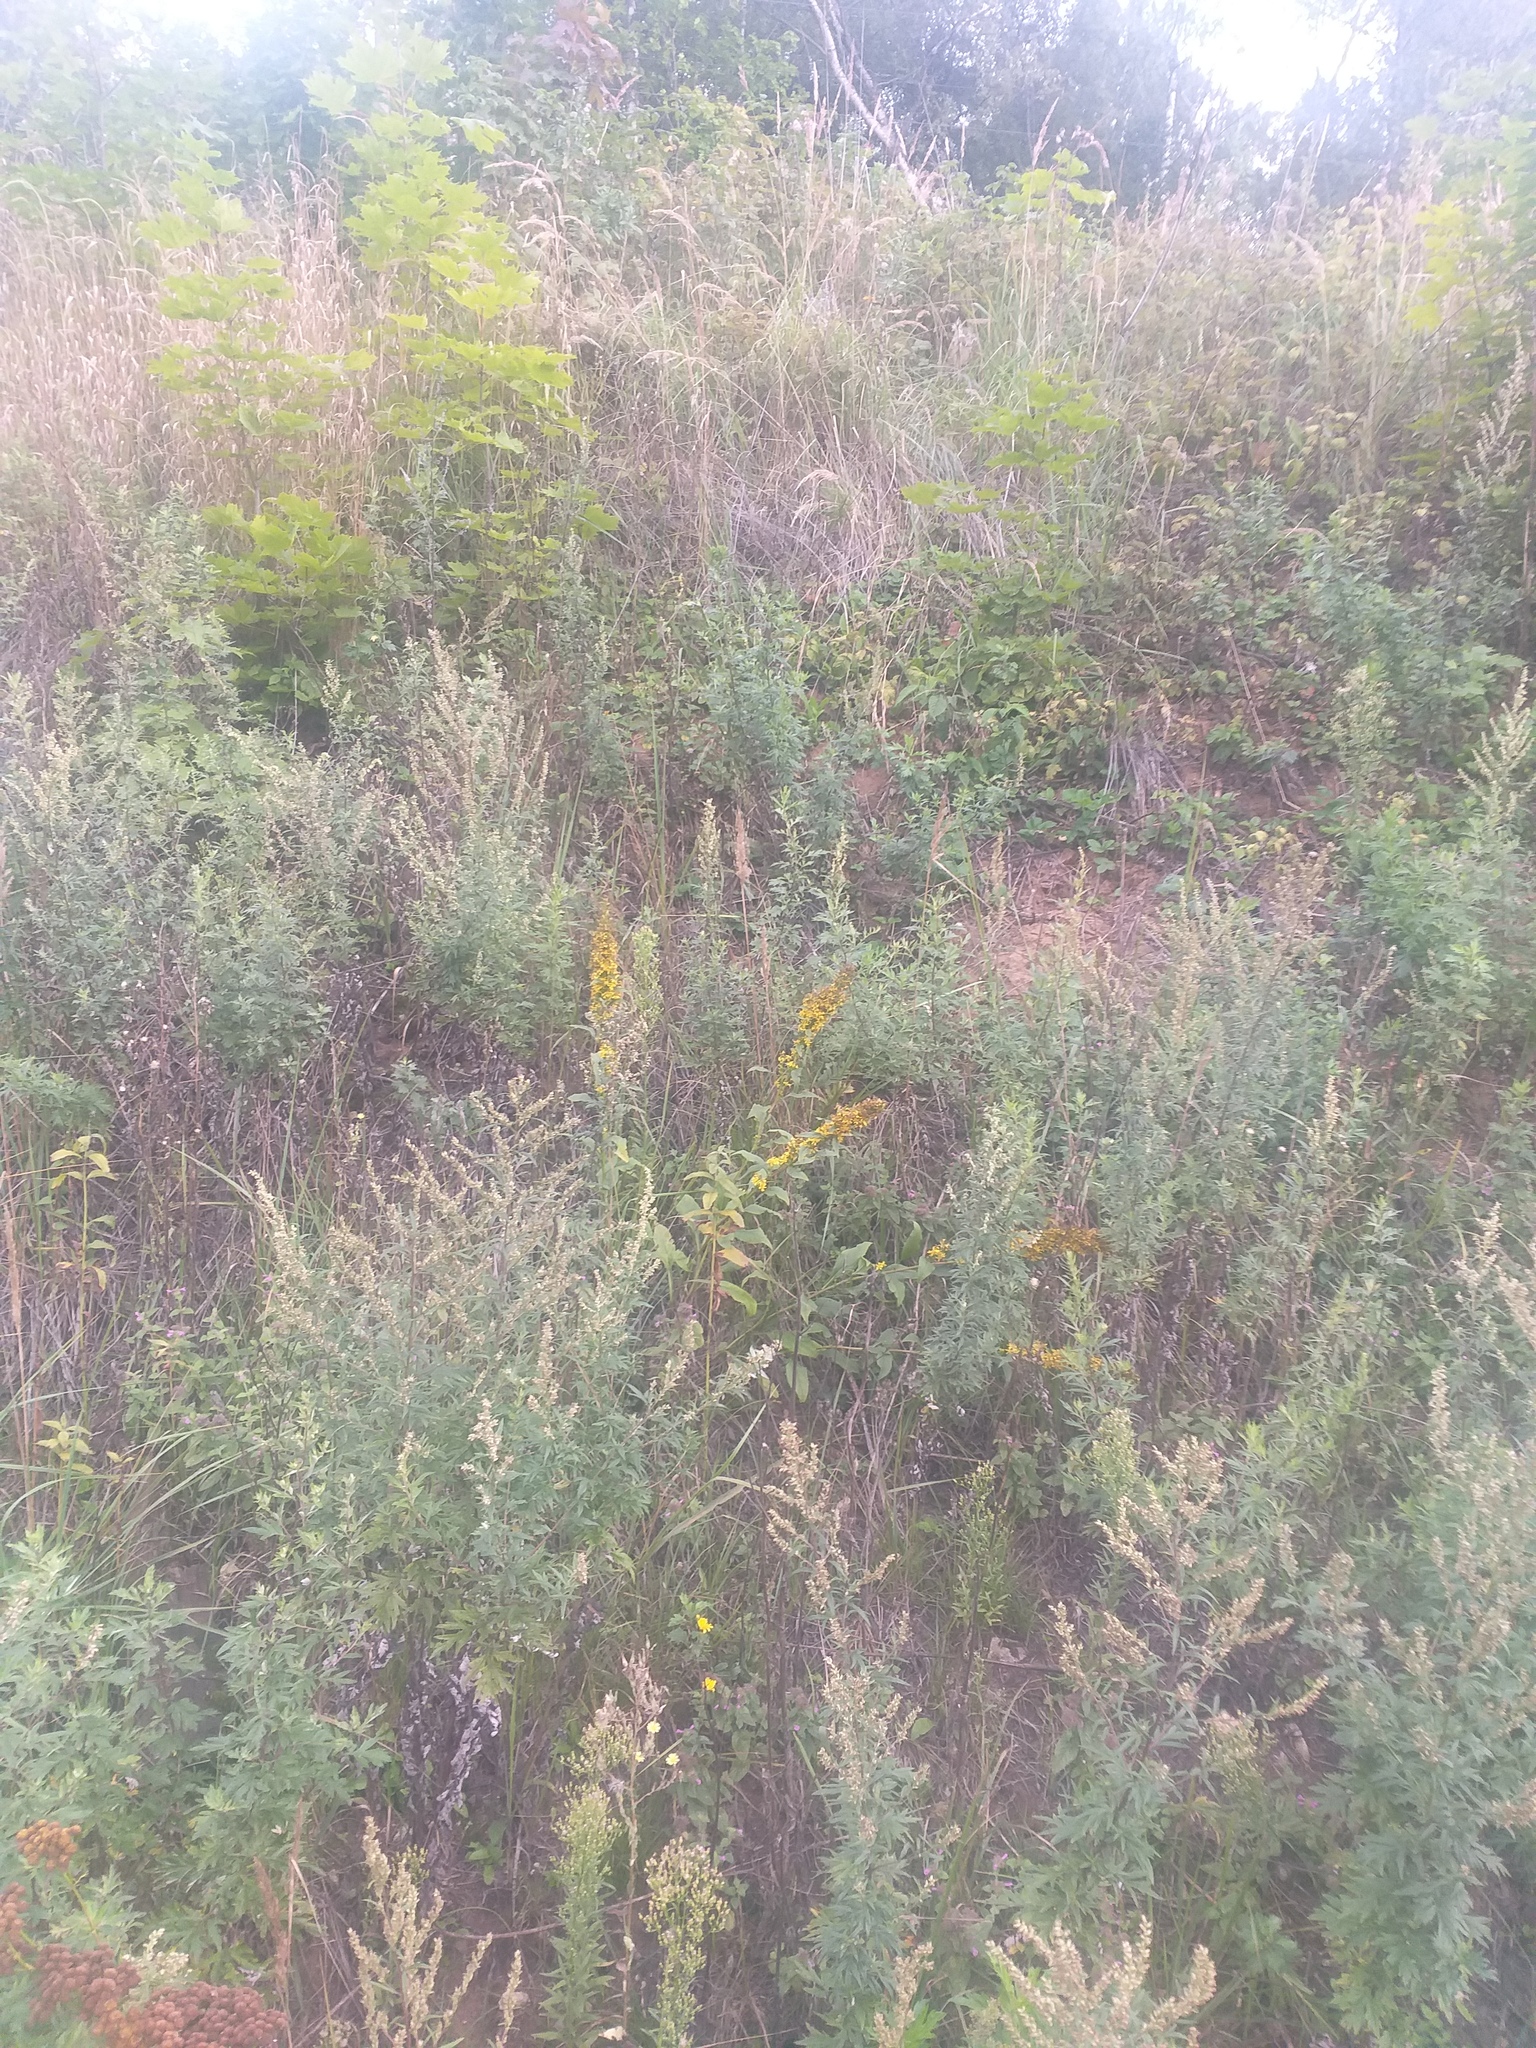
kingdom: Plantae
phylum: Tracheophyta
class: Magnoliopsida
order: Asterales
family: Asteraceae
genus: Solidago
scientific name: Solidago virgaurea
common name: Goldenrod
